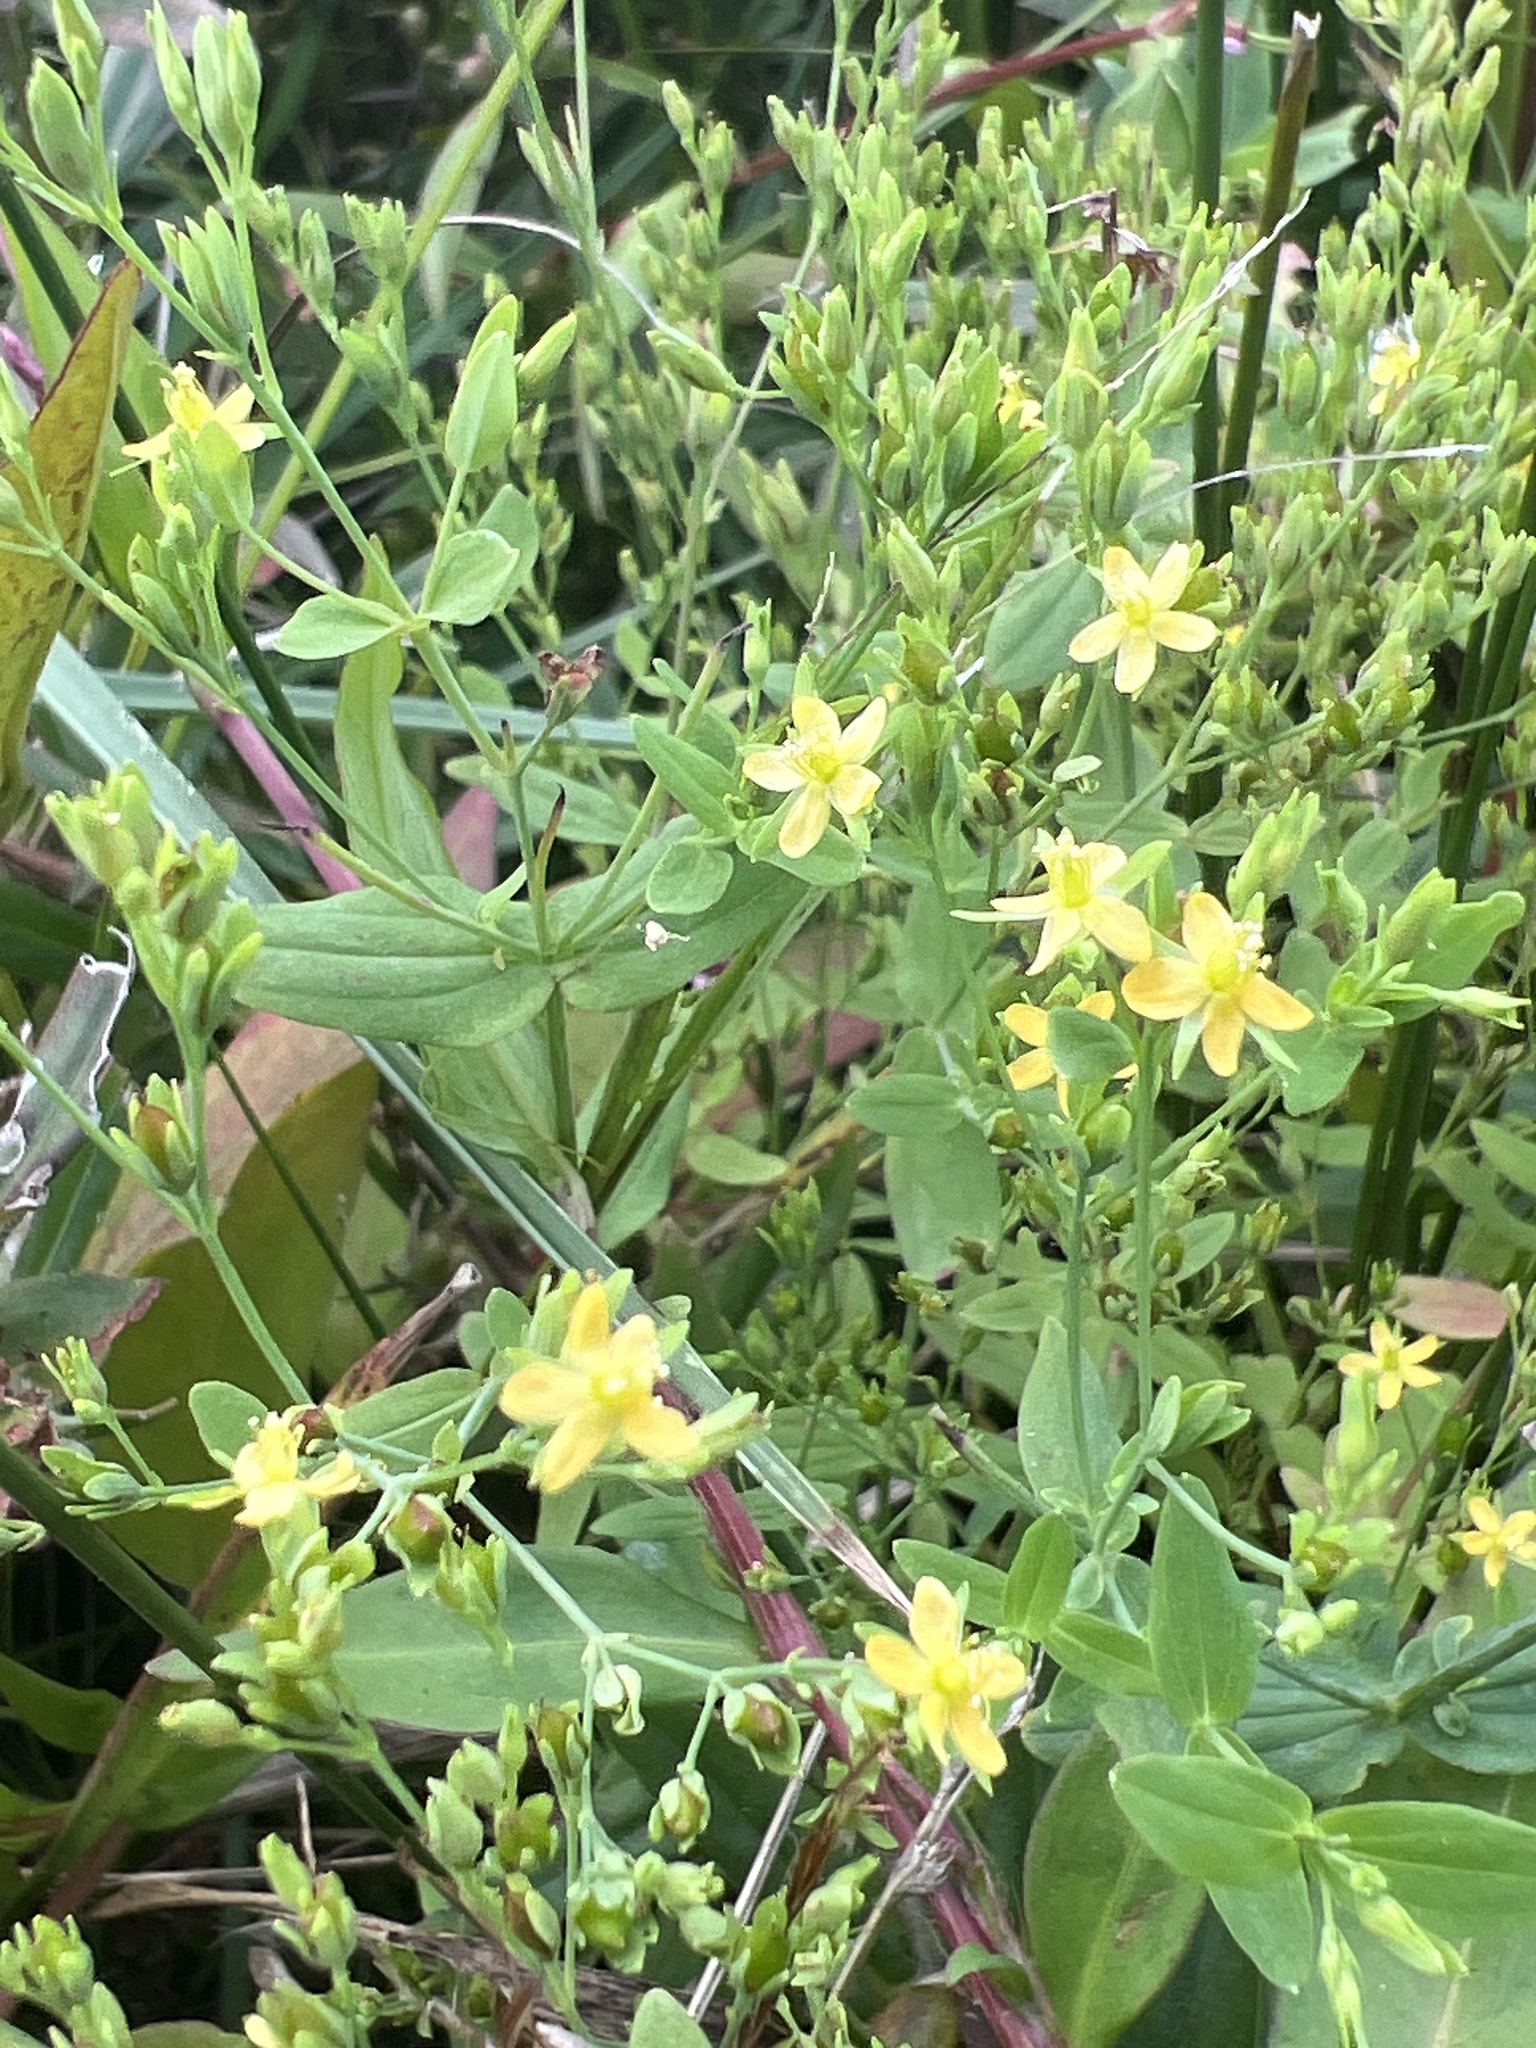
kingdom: Plantae
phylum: Tracheophyta
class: Magnoliopsida
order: Malpighiales
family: Hypericaceae
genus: Hypericum
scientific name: Hypericum mutilum
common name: Dwarf st. john's-wort
